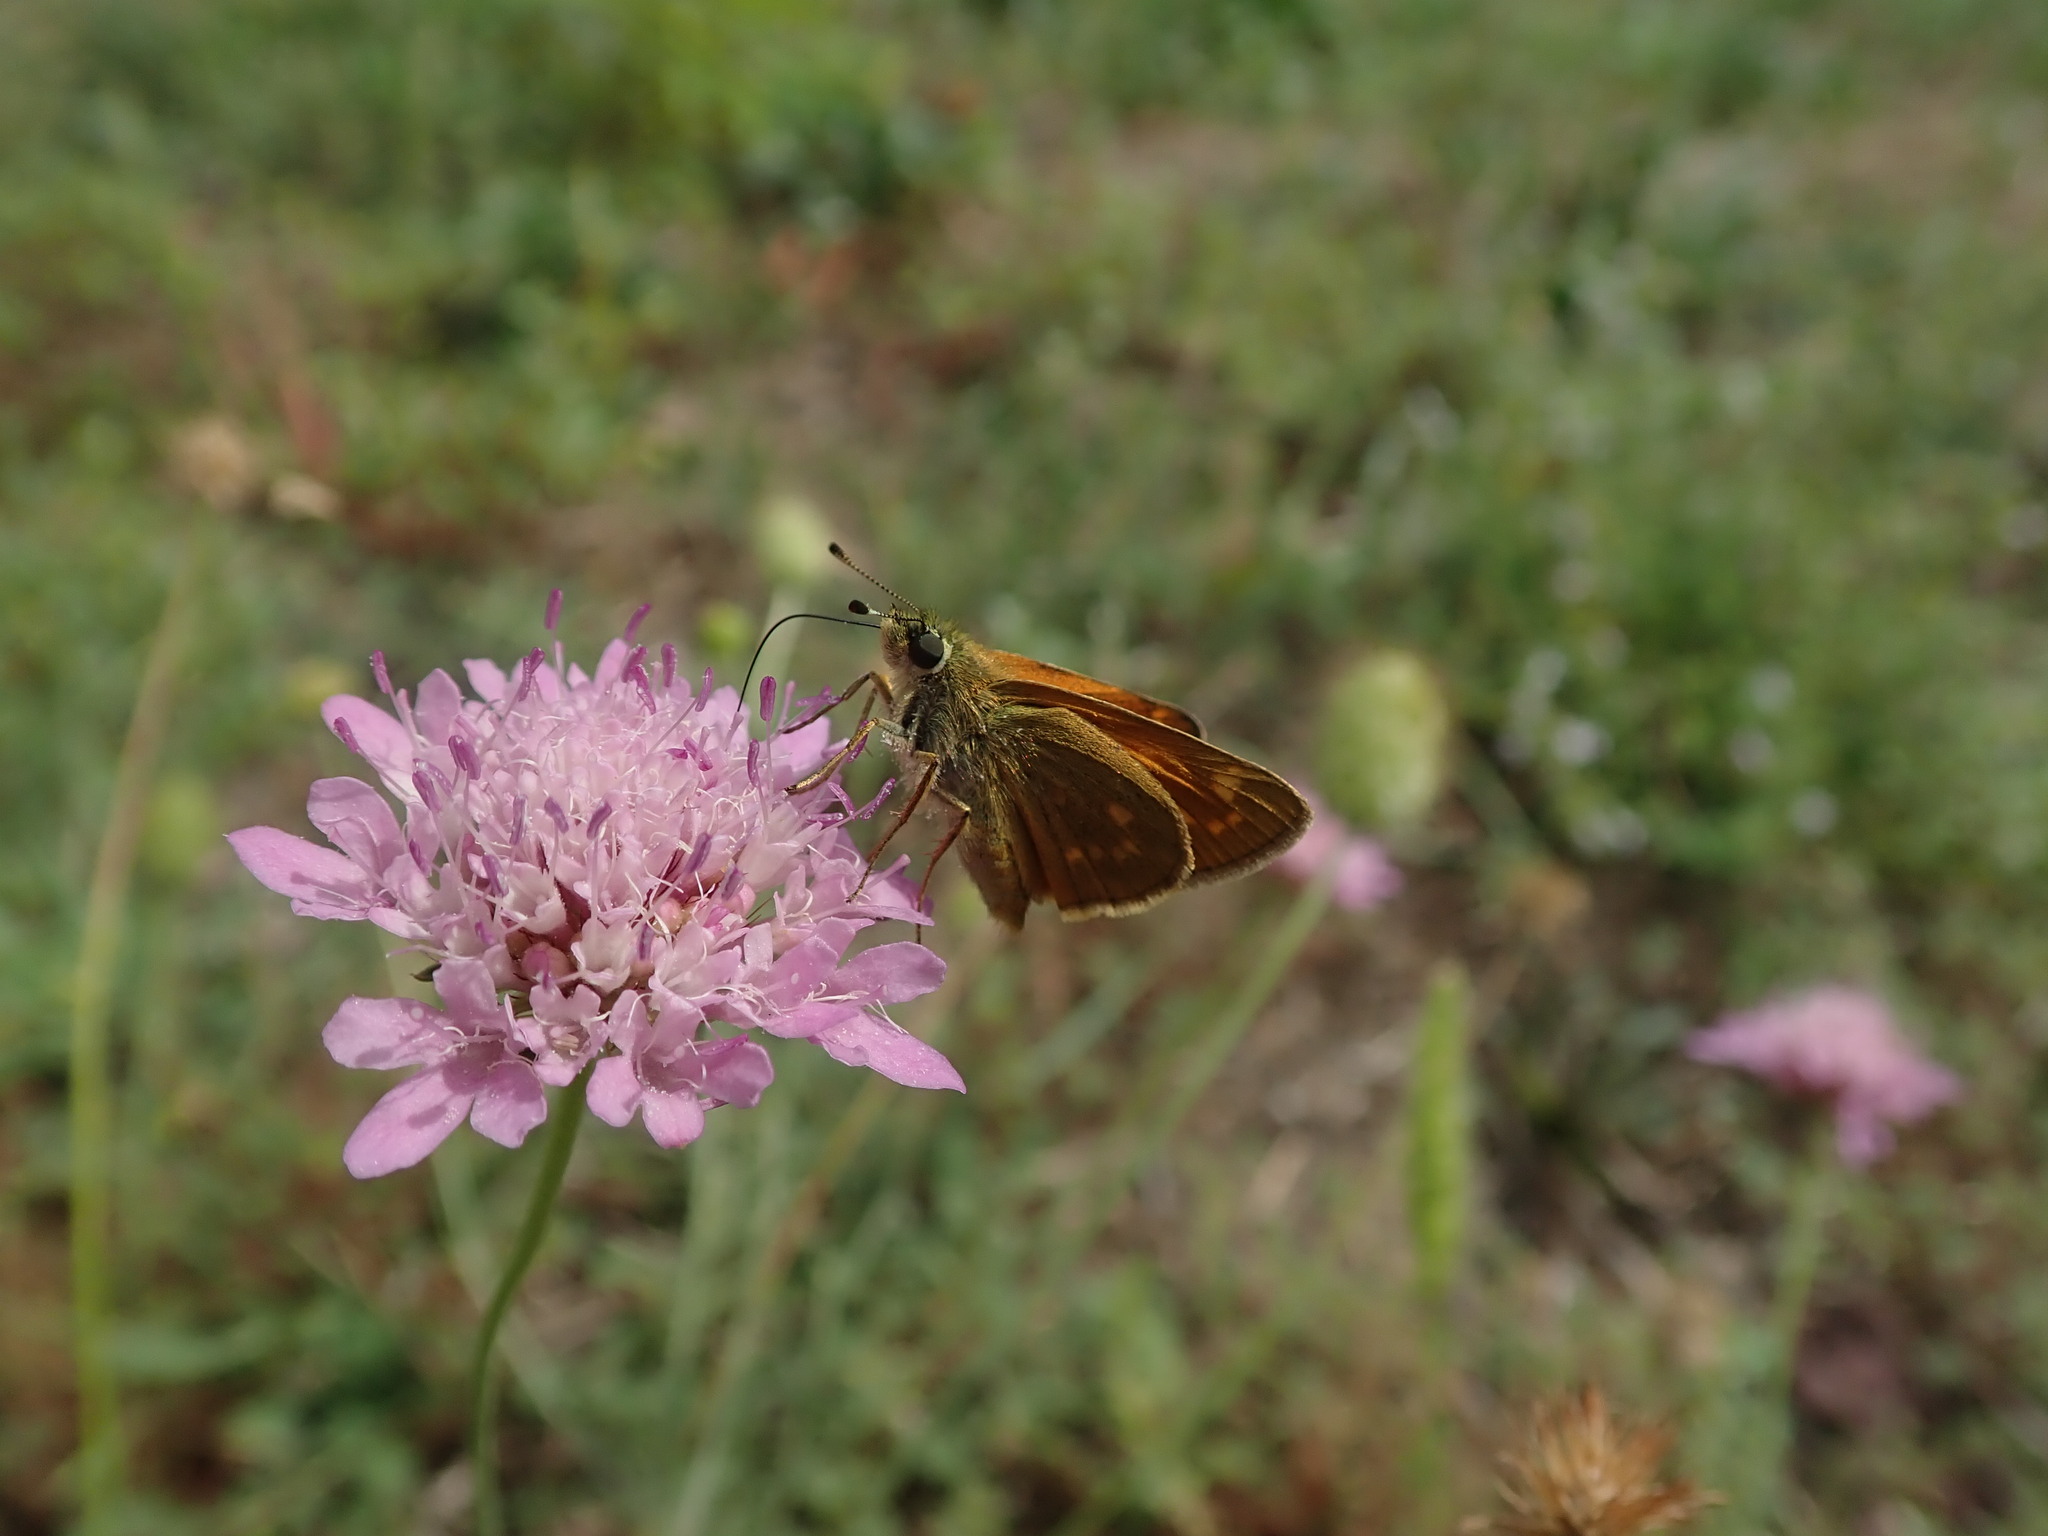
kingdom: Animalia
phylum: Arthropoda
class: Insecta
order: Lepidoptera
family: Hesperiidae
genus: Ochlodes
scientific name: Ochlodes venata
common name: Large skipper
